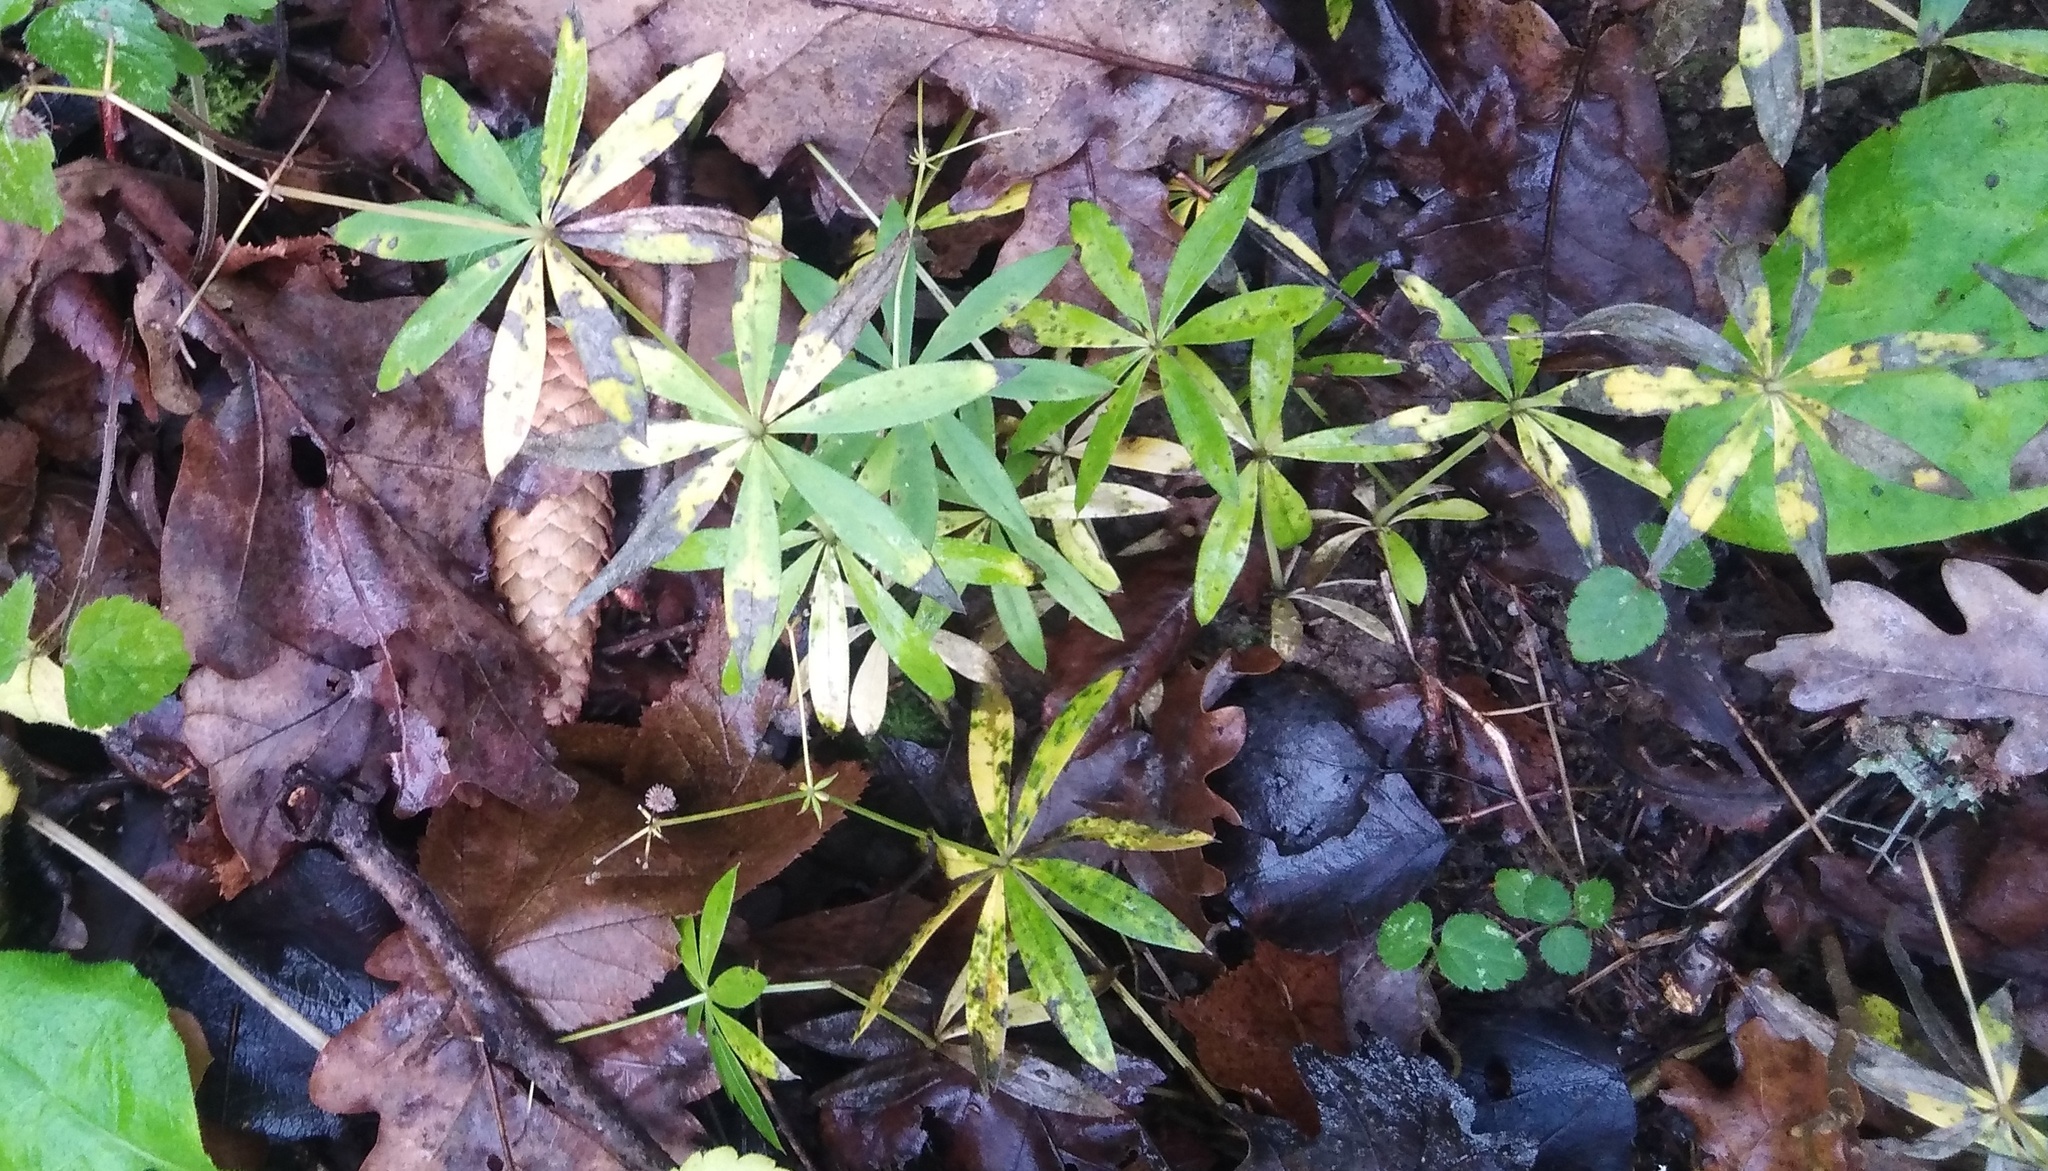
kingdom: Plantae
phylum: Tracheophyta
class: Magnoliopsida
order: Gentianales
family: Rubiaceae
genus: Galium
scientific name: Galium odoratum
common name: Sweet woodruff
